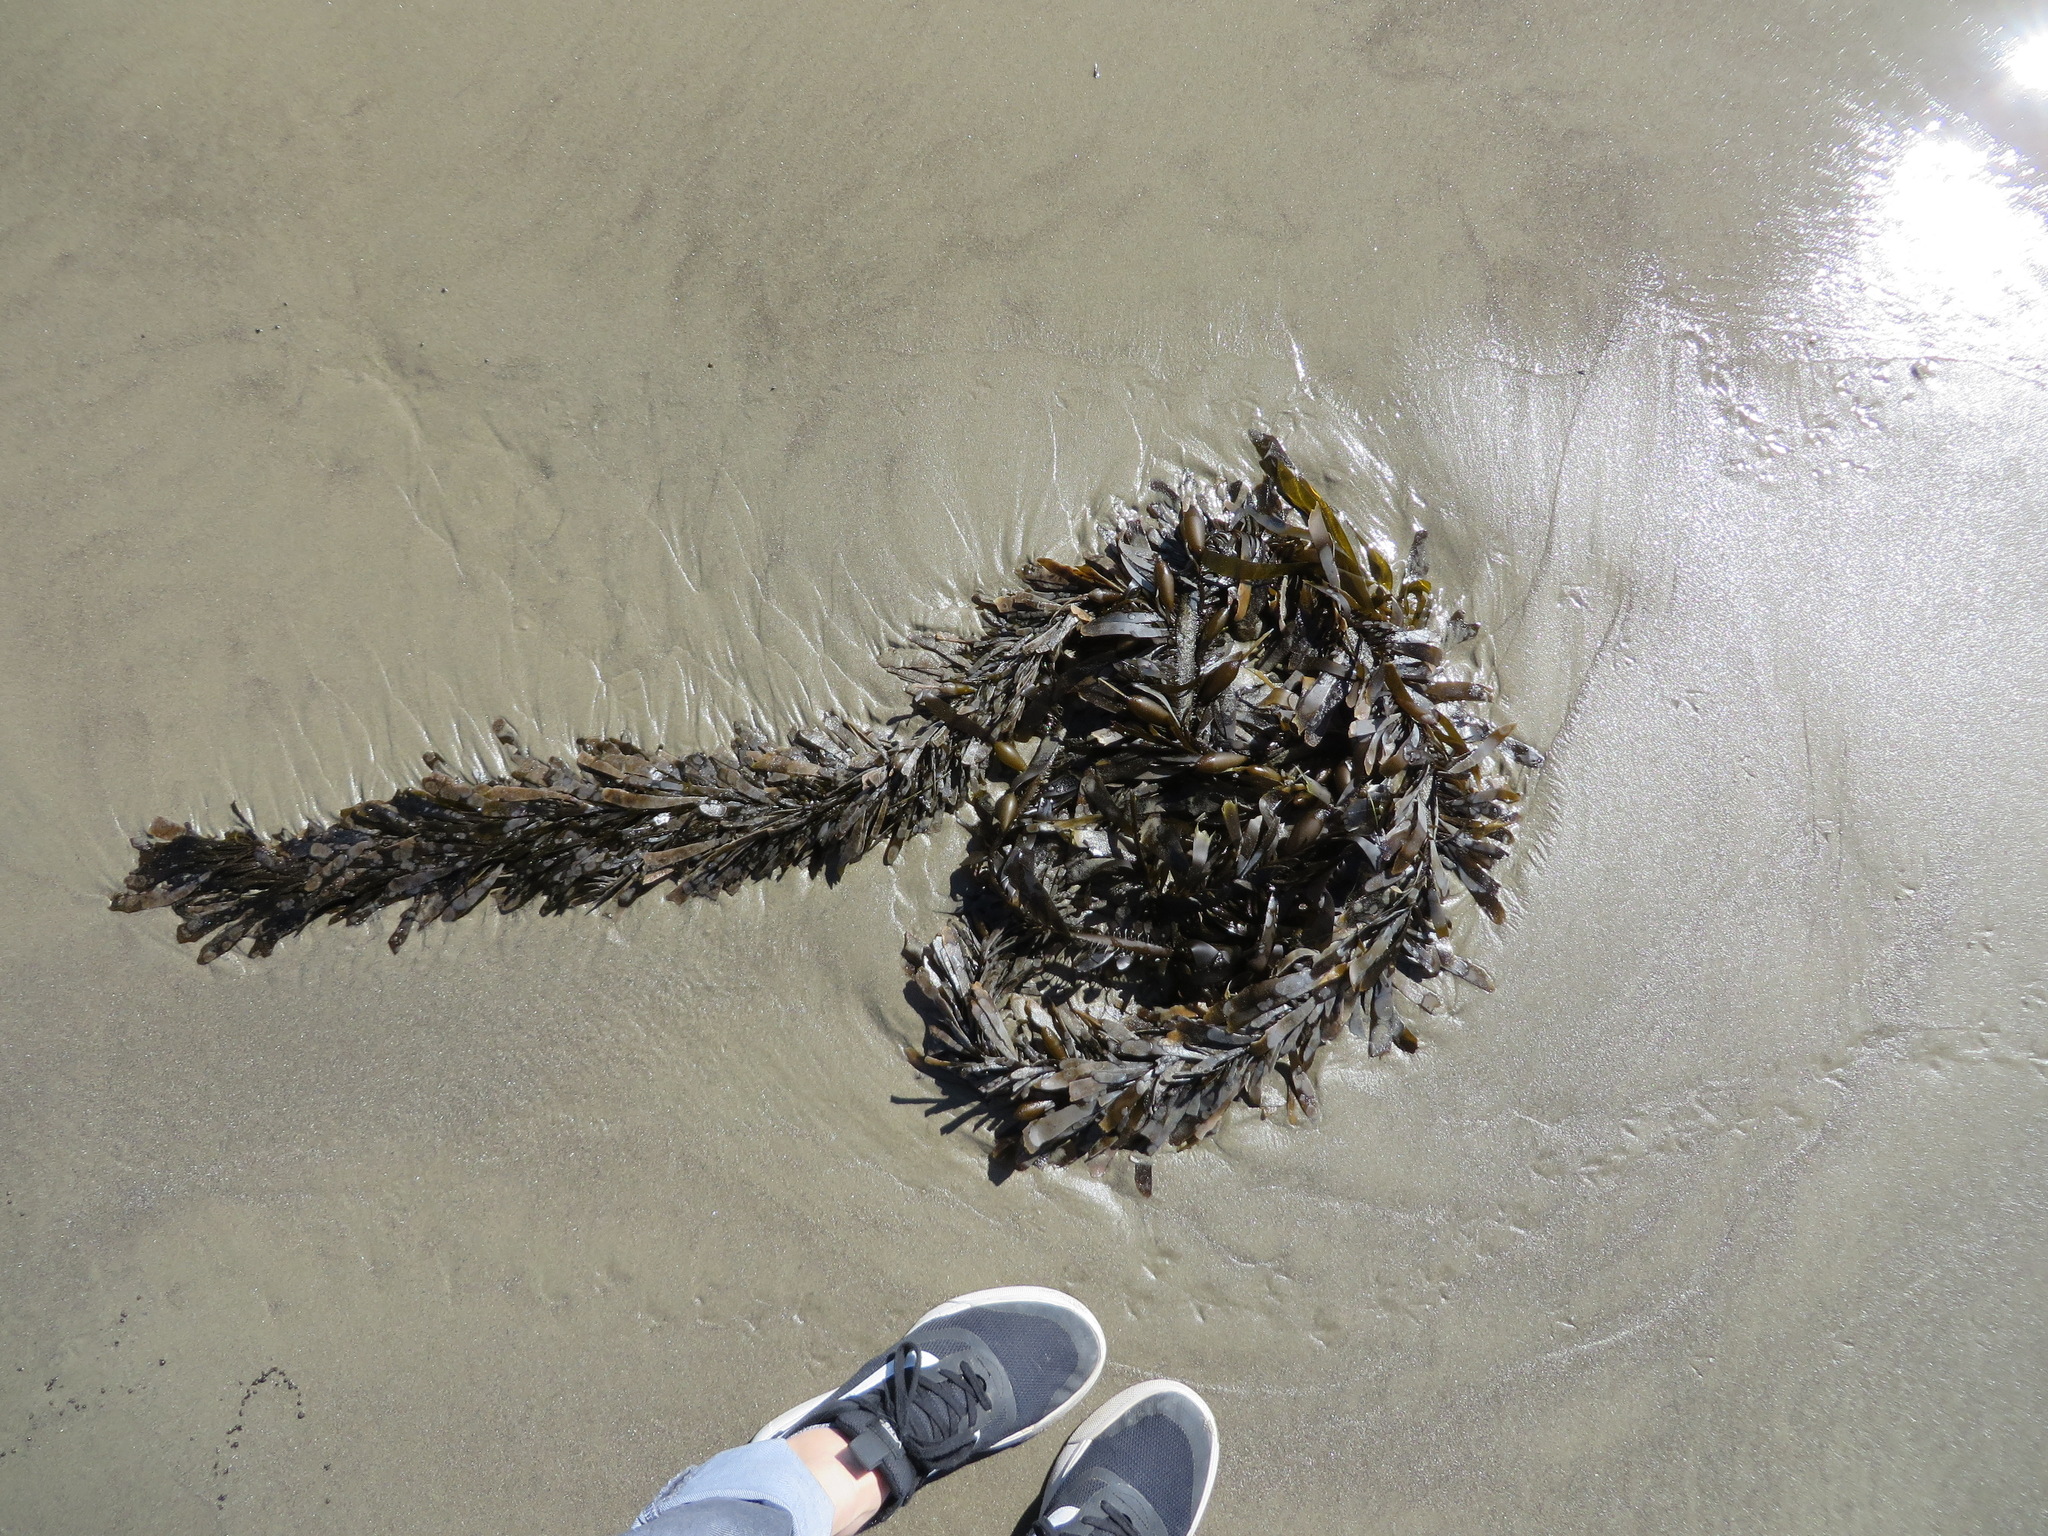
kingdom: Chromista
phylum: Ochrophyta
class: Phaeophyceae
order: Laminariales
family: Lessoniaceae
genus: Egregia
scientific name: Egregia menziesii
